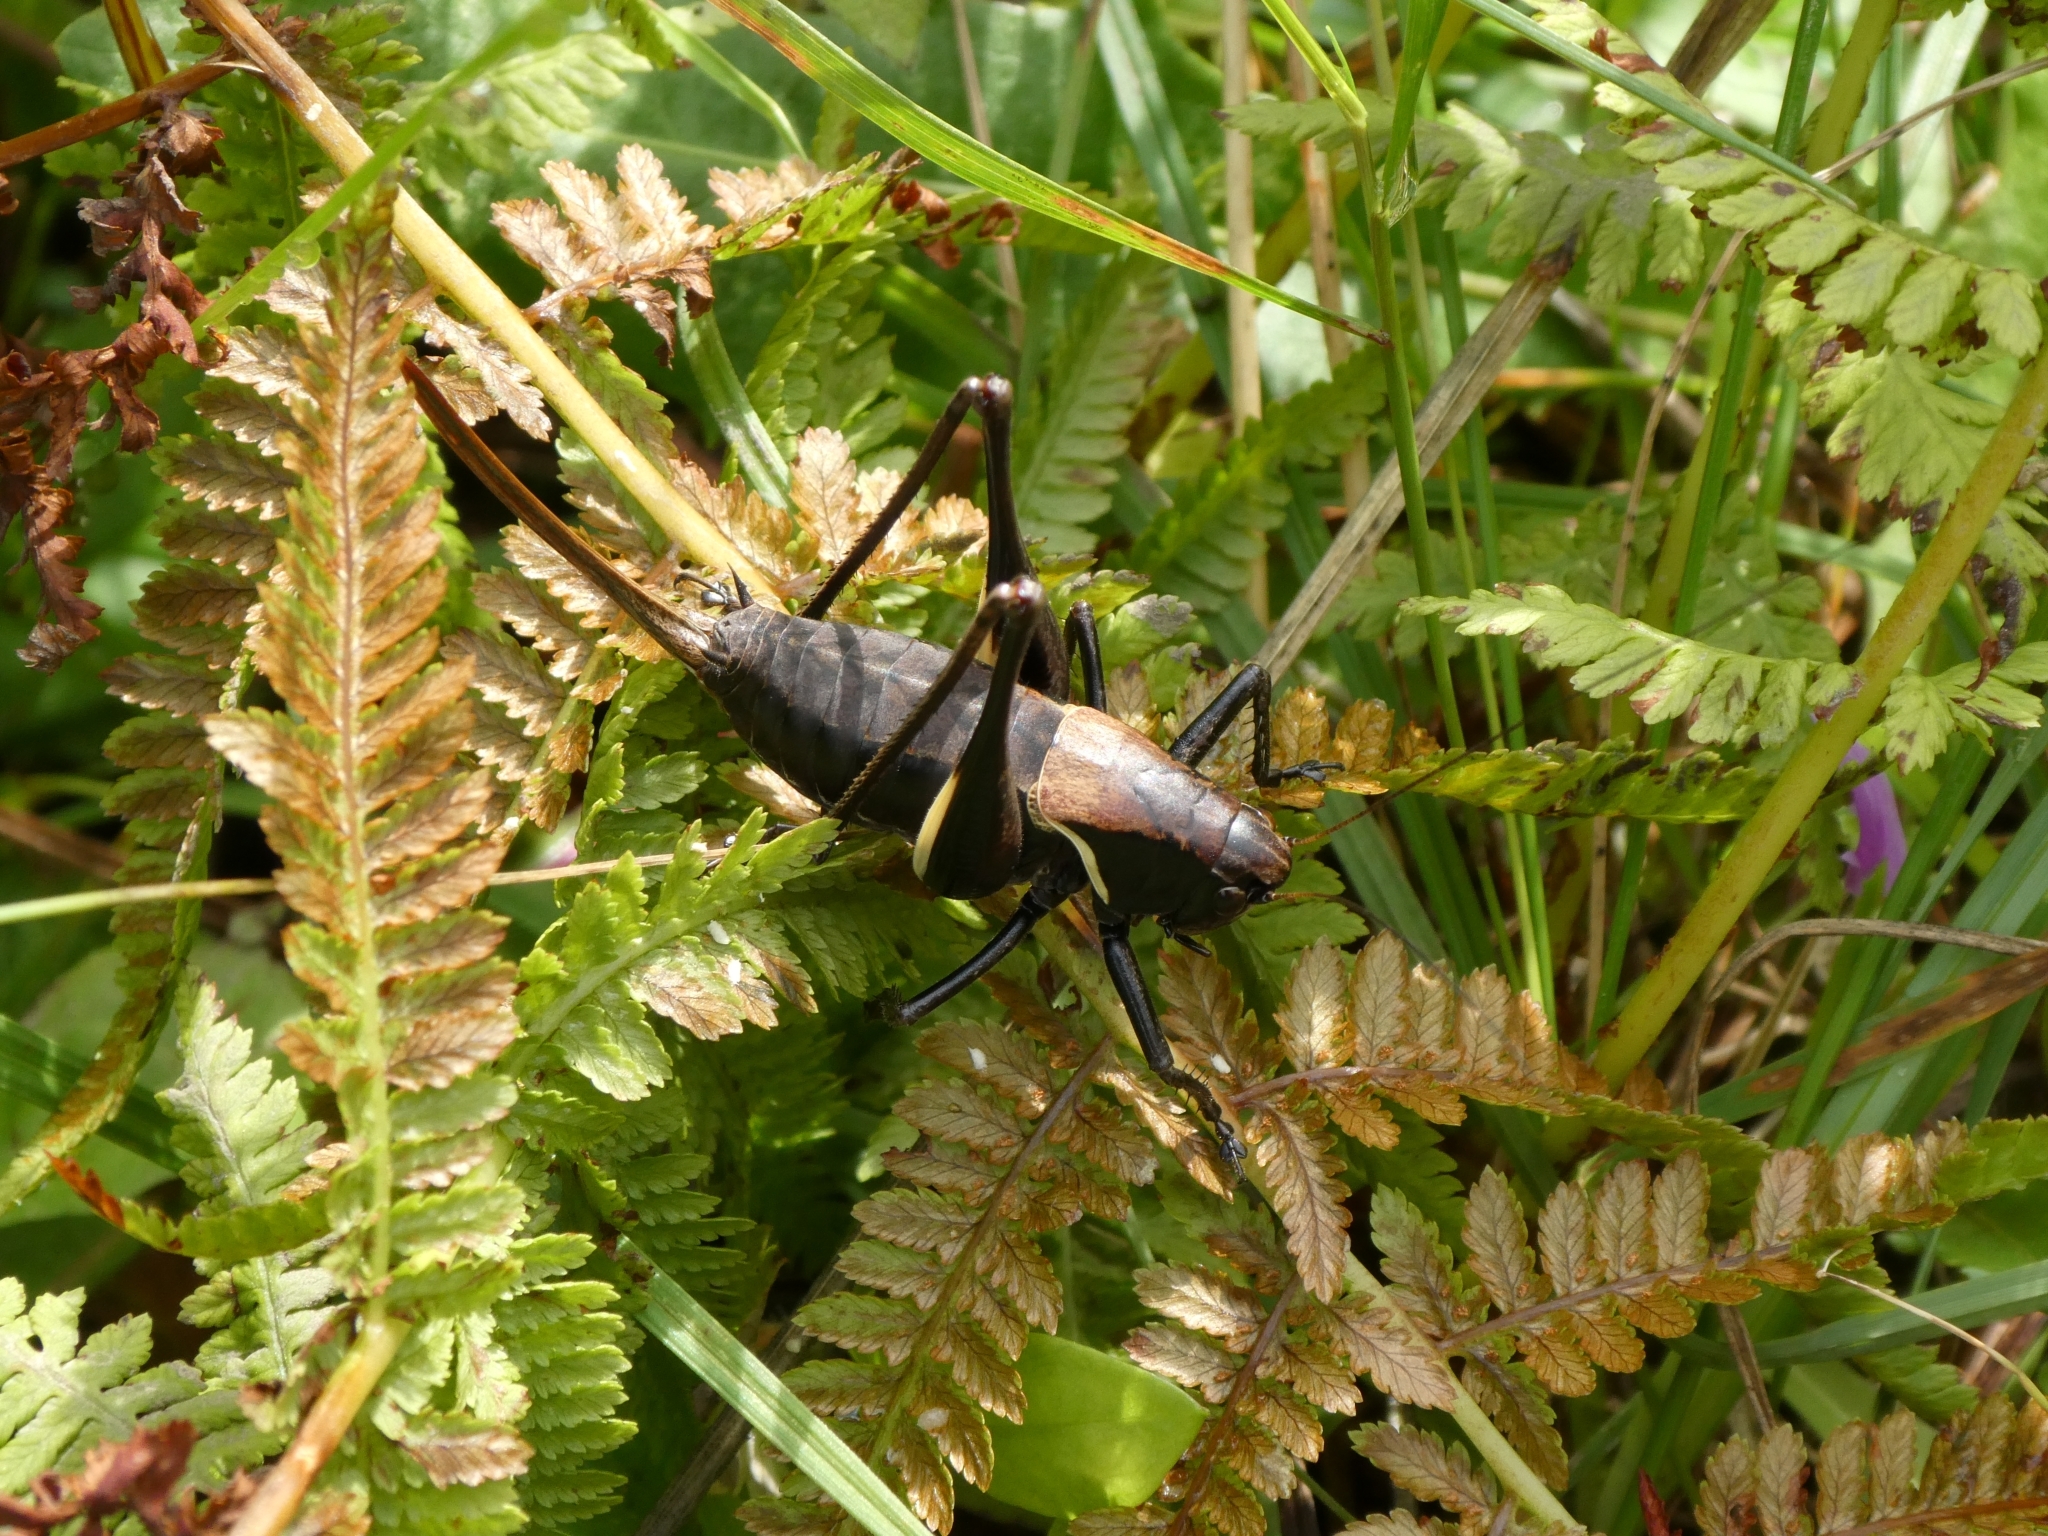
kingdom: Animalia
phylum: Arthropoda
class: Insecta
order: Orthoptera
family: Tettigoniidae
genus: Pholidoptera
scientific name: Pholidoptera aptera
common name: Alpine dark bush-cricket
